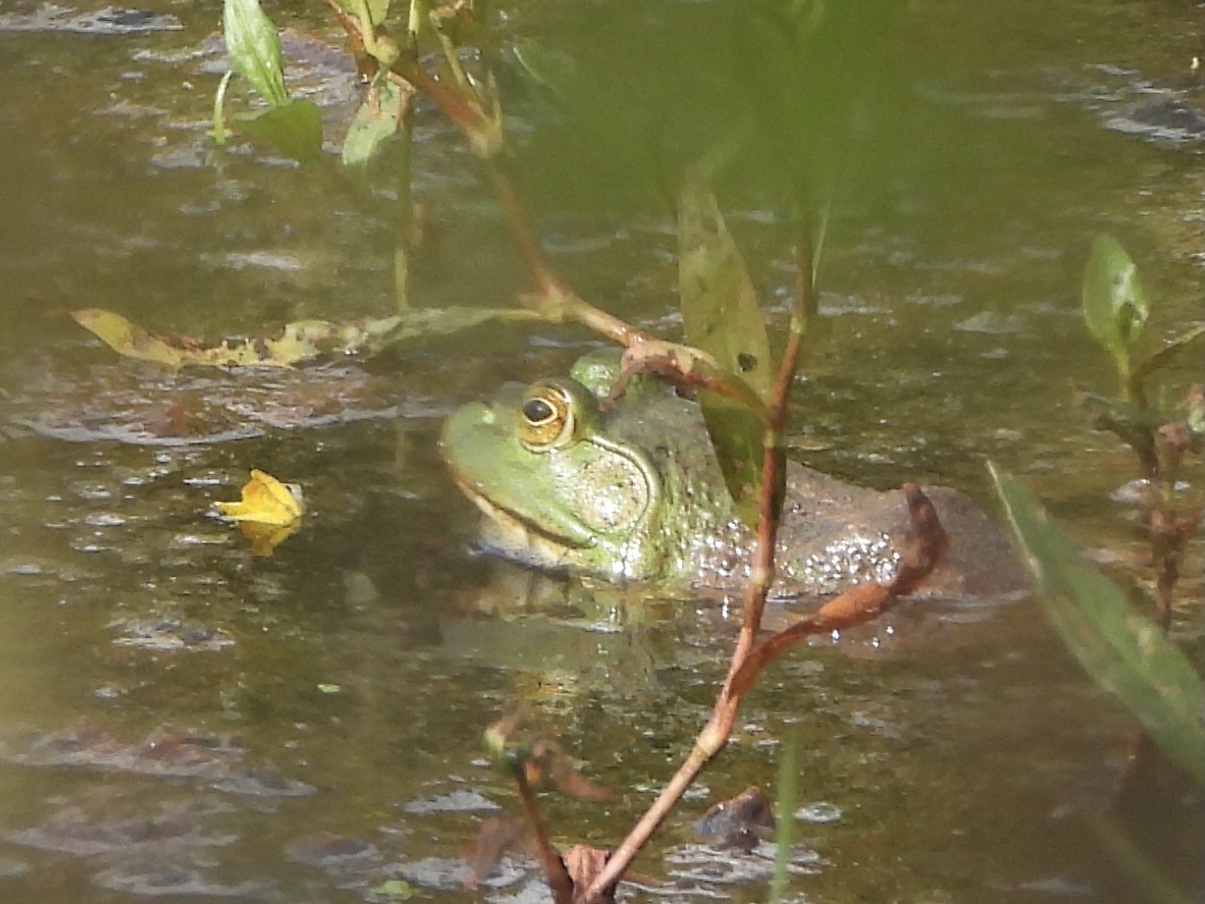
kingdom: Animalia
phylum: Chordata
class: Amphibia
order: Anura
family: Ranidae
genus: Lithobates
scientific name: Lithobates catesbeianus
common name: American bullfrog
